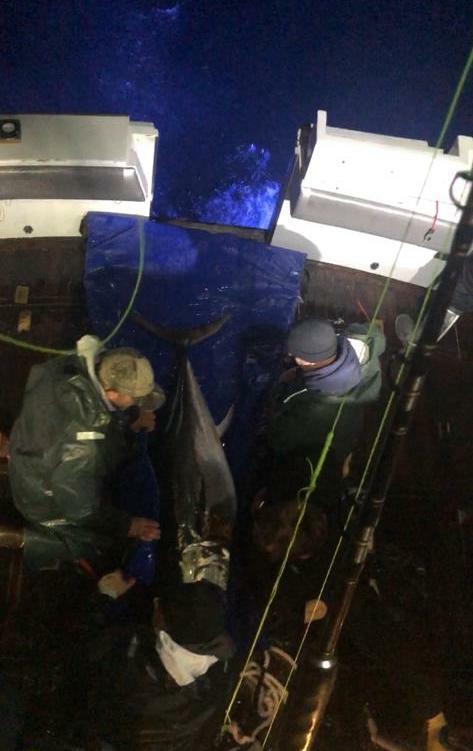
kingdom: Animalia
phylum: Chordata
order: Perciformes
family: Scombridae
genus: Thunnus
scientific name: Thunnus orientalis
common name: Pacific bluefin tuna
